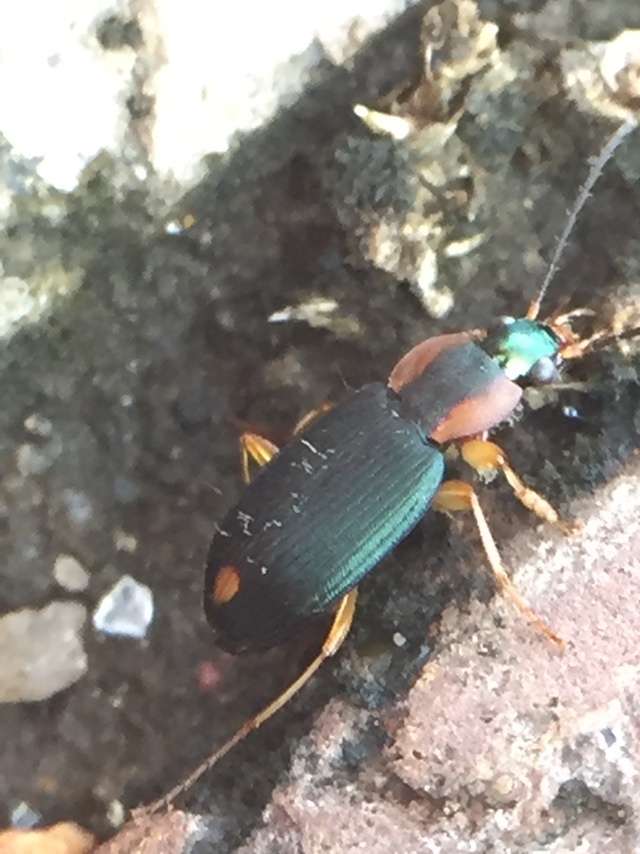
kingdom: Animalia
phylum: Arthropoda
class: Insecta
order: Coleoptera
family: Carabidae
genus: Chlaenius
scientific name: Chlaenius malachinus
